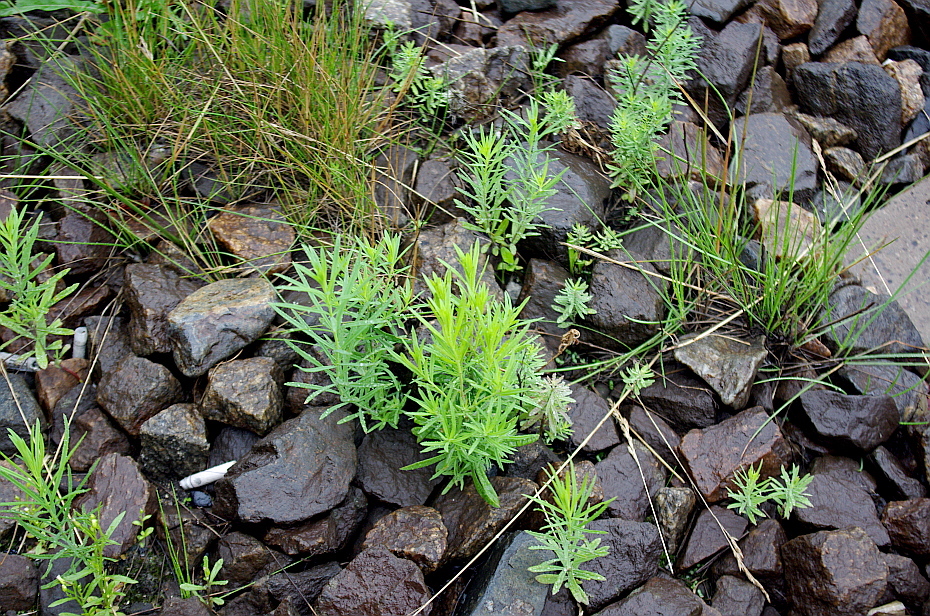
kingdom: Plantae
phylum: Tracheophyta
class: Magnoliopsida
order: Lamiales
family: Plantaginaceae
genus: Linaria
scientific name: Linaria vulgaris
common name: Butter and eggs
